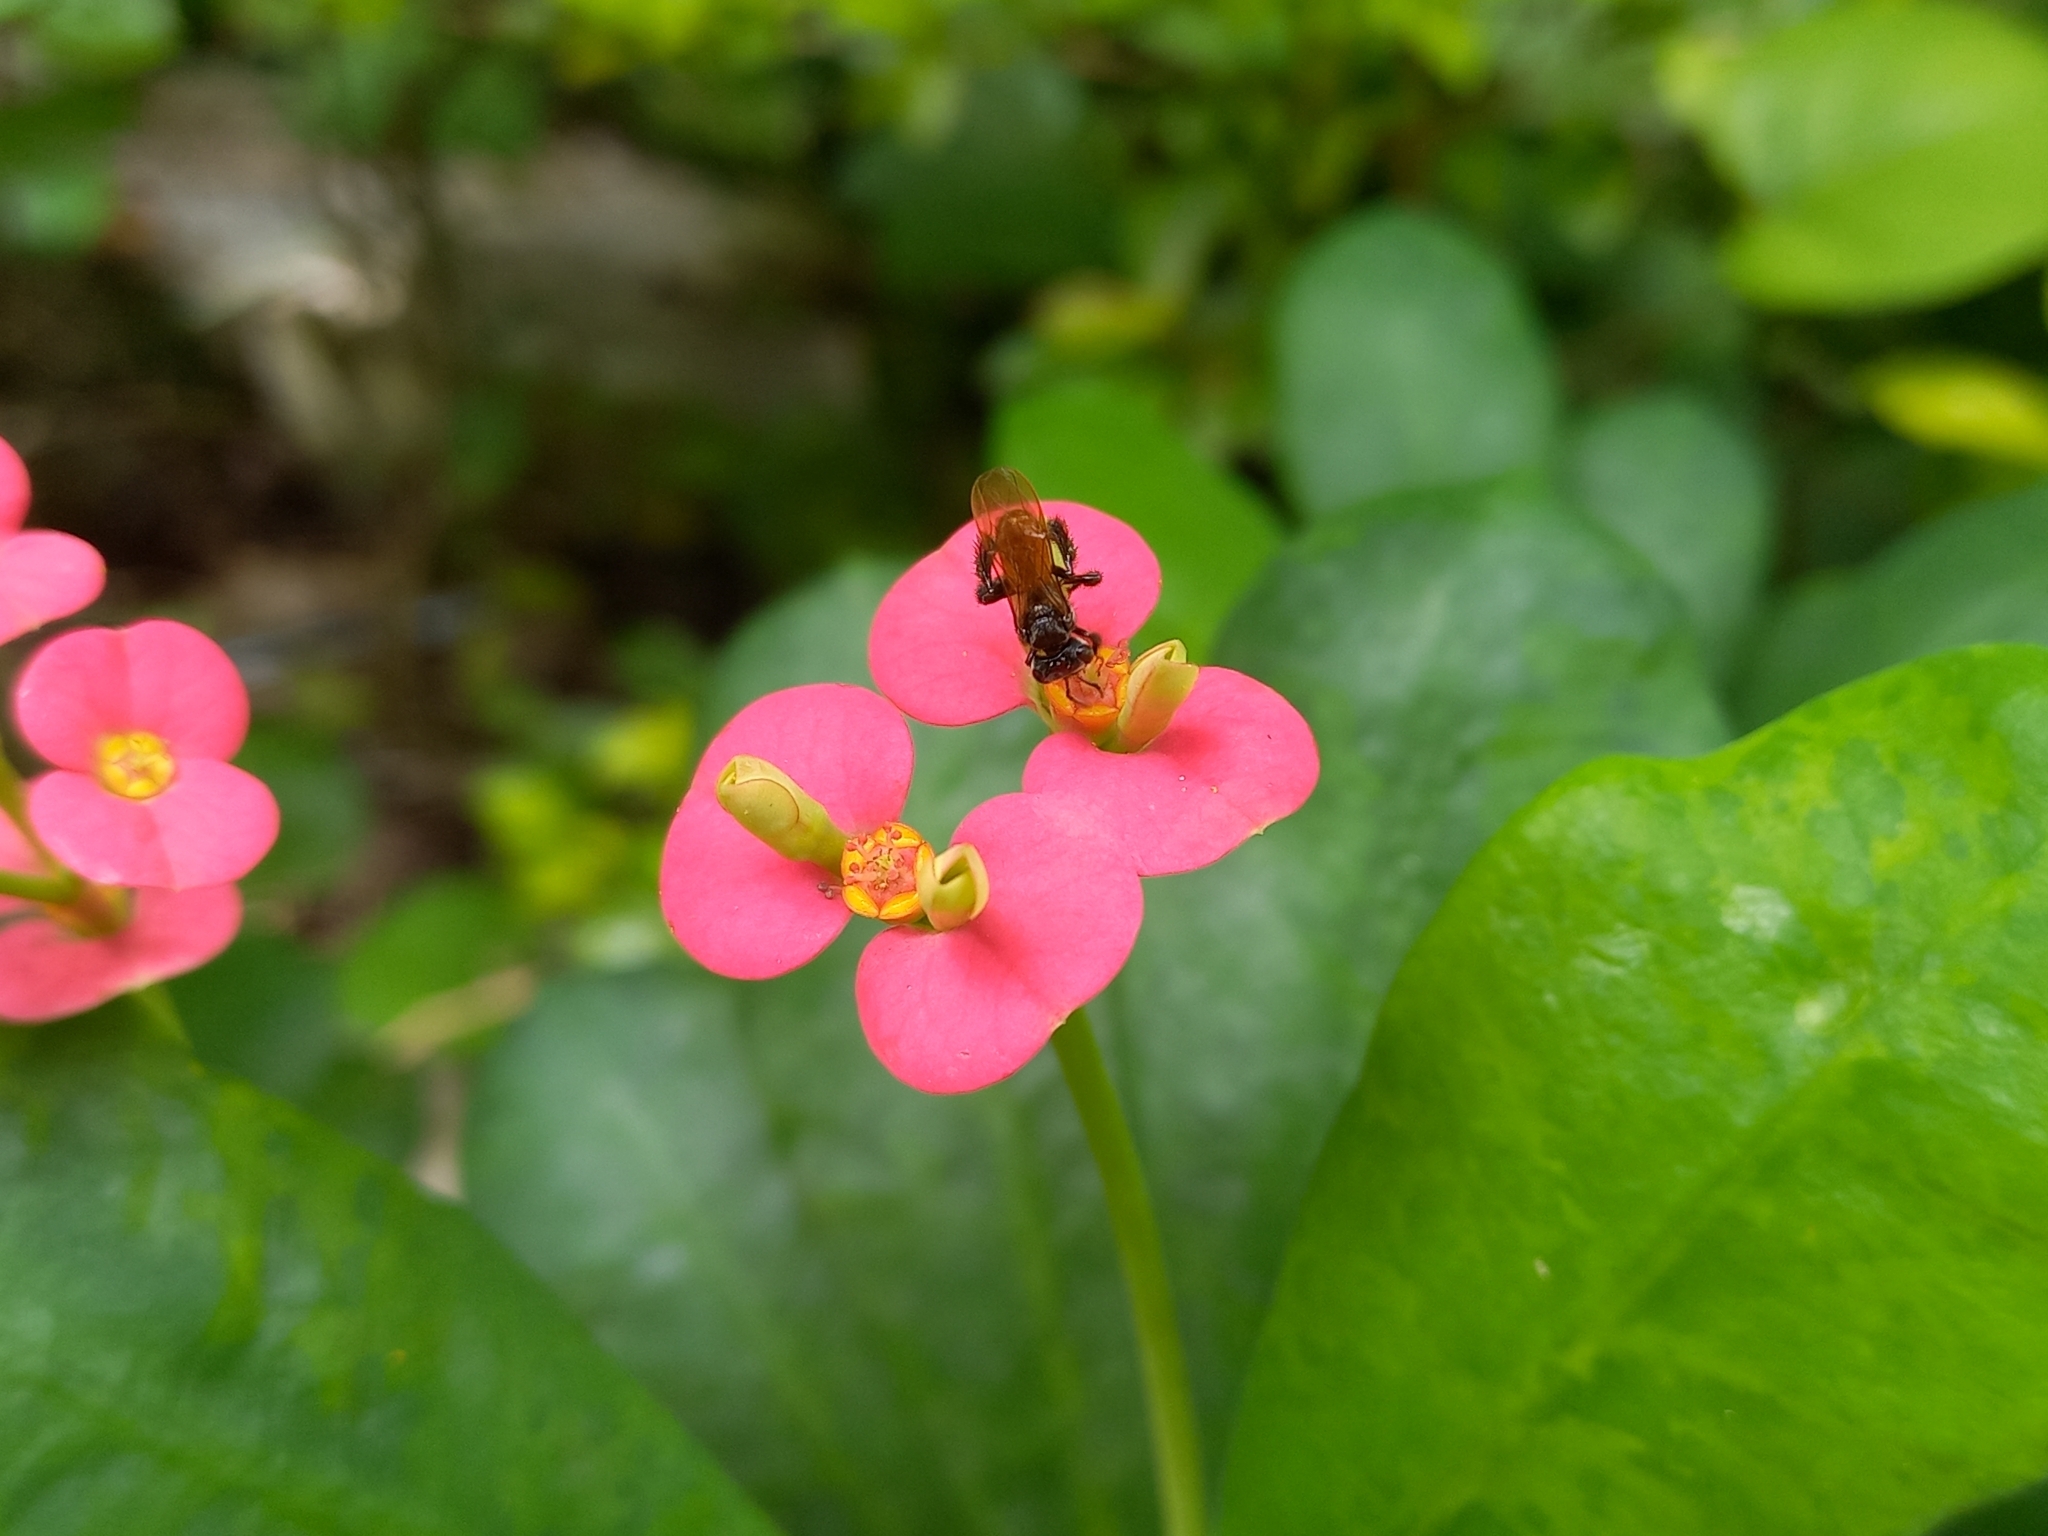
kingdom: Animalia
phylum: Arthropoda
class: Insecta
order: Hymenoptera
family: Apidae
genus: Trigona
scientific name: Trigona fulviventris
